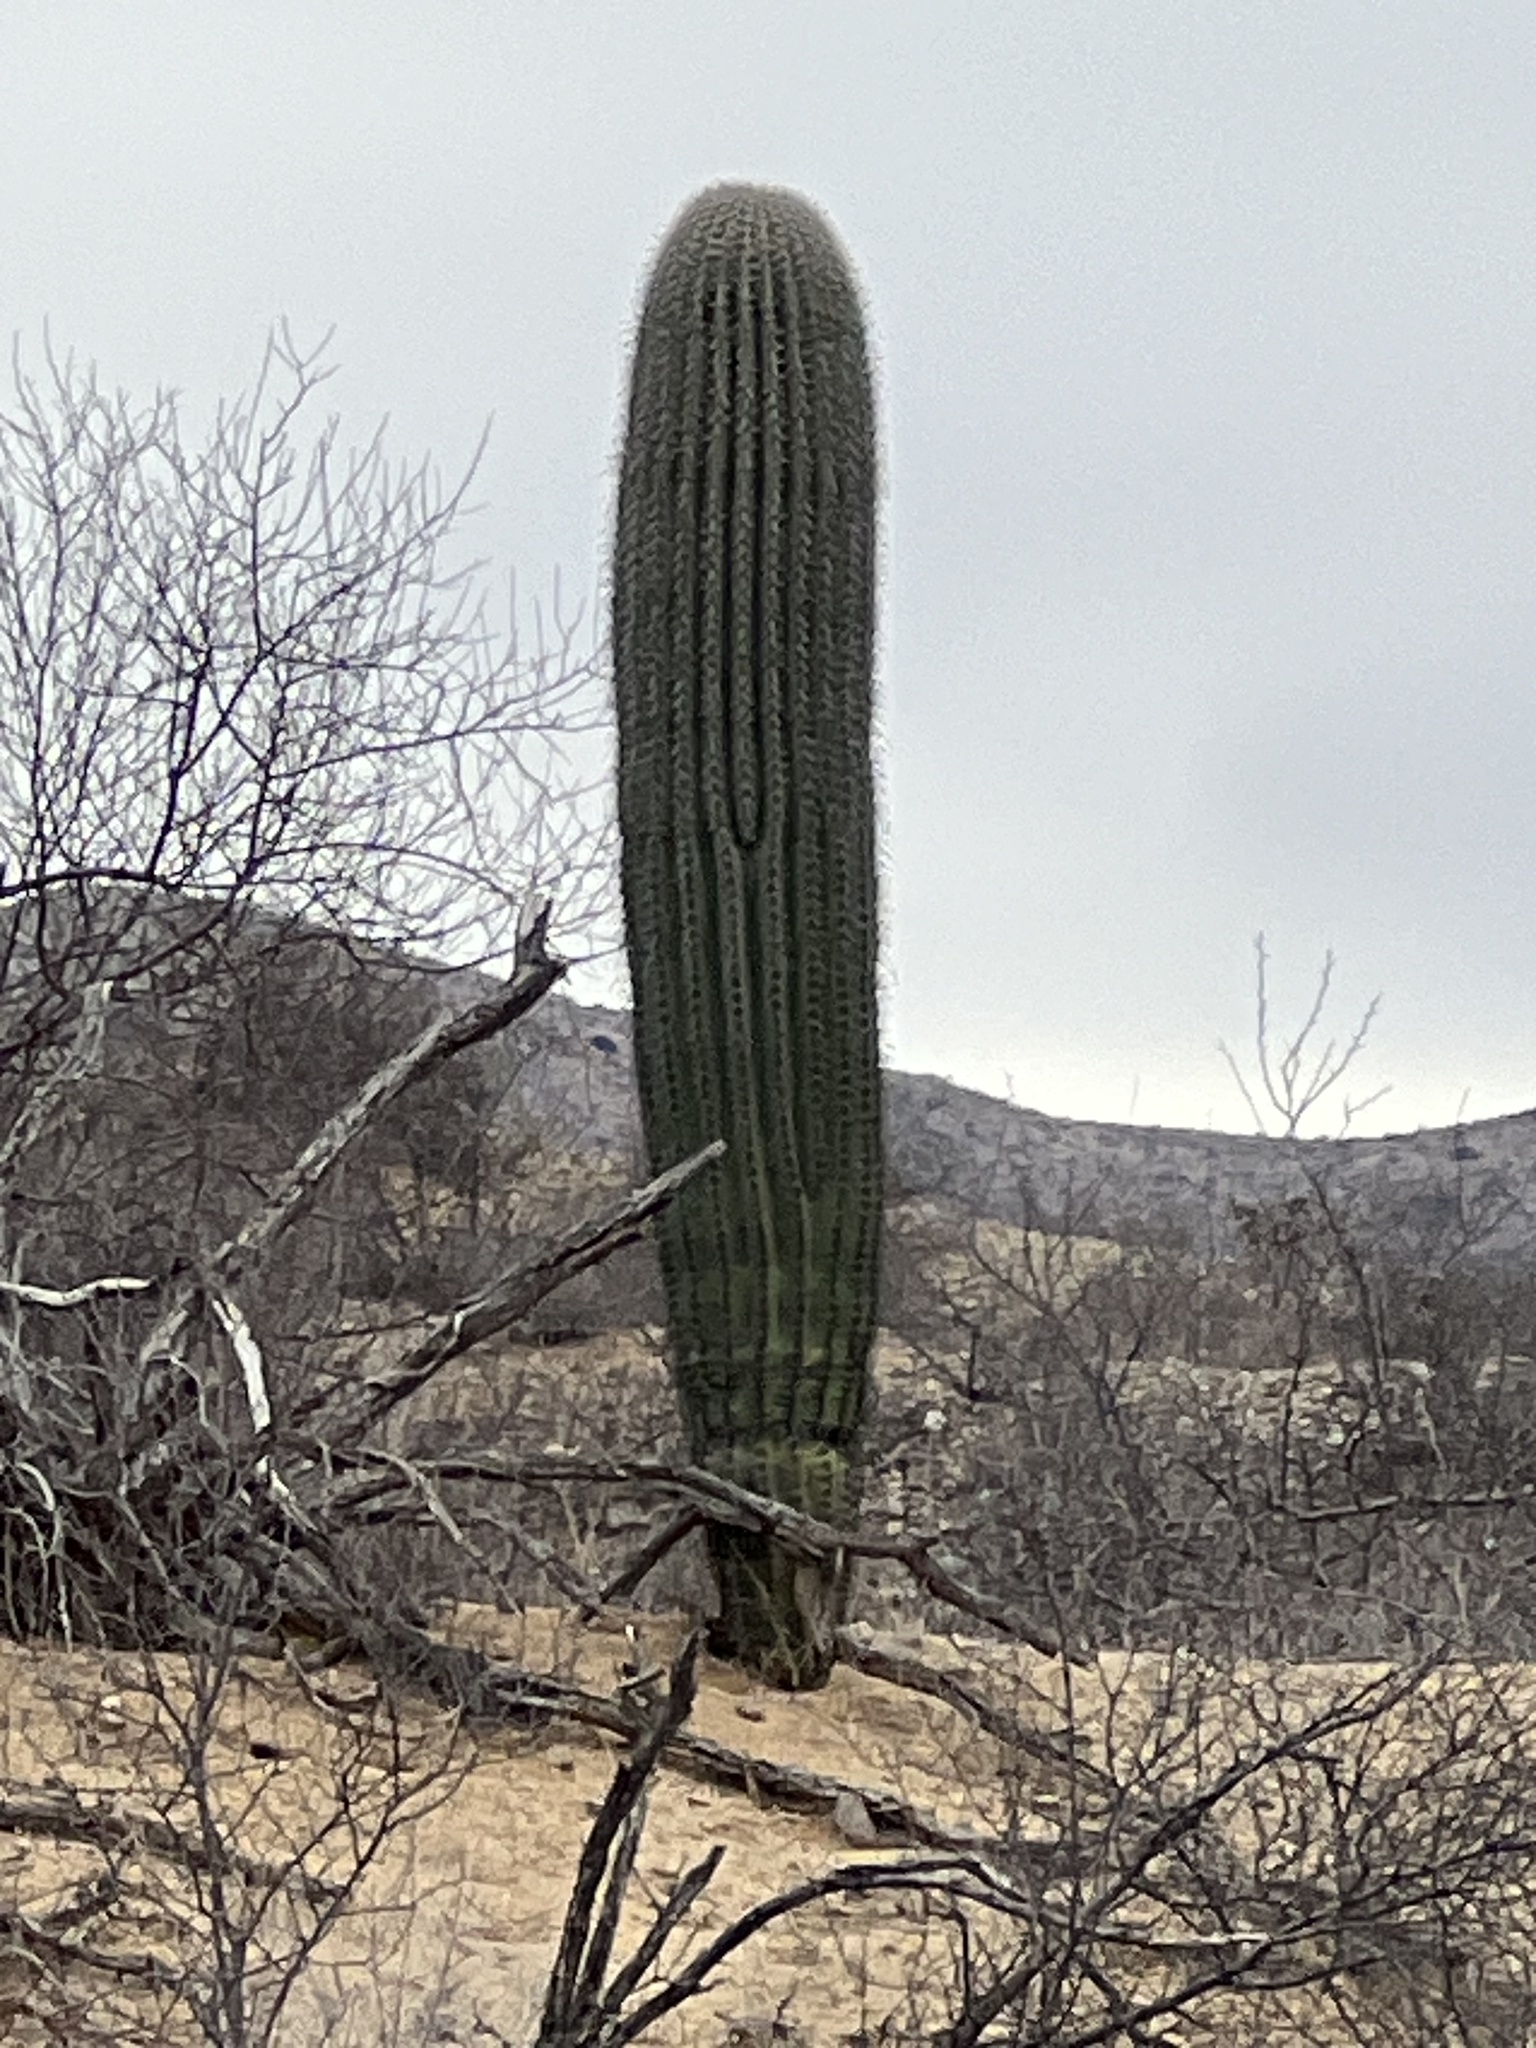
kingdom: Plantae
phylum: Tracheophyta
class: Magnoliopsida
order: Caryophyllales
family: Cactaceae
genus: Carnegiea
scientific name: Carnegiea gigantea
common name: Saguaro
